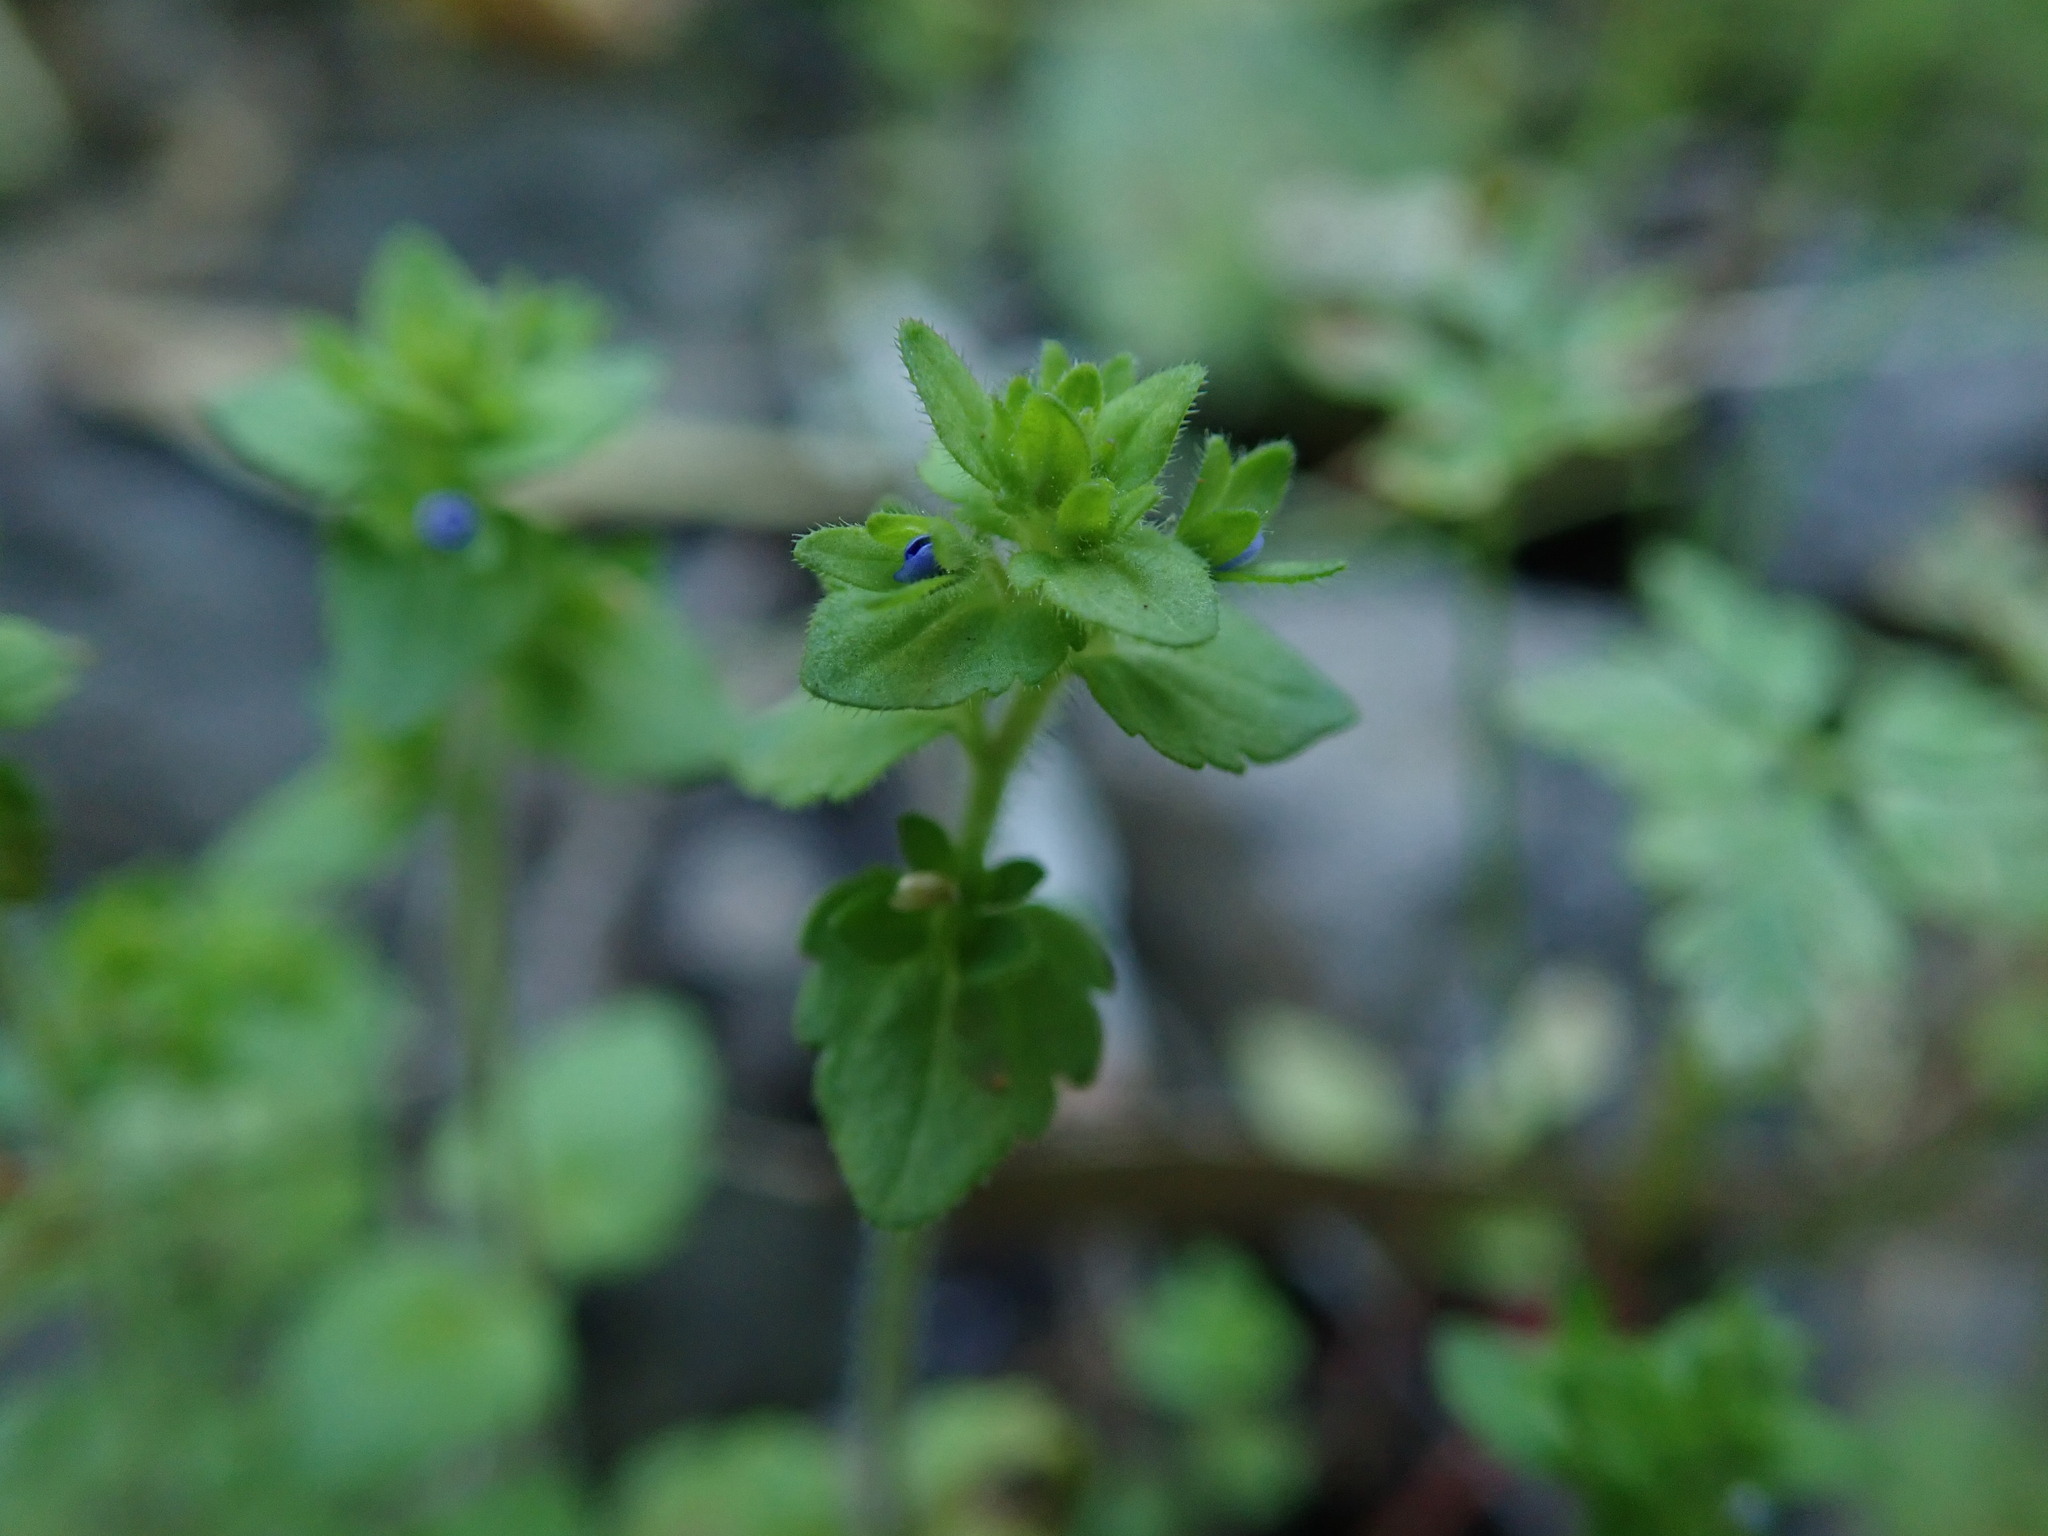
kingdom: Plantae
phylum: Tracheophyta
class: Magnoliopsida
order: Lamiales
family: Plantaginaceae
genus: Veronica
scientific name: Veronica arvensis
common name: Corn speedwell
